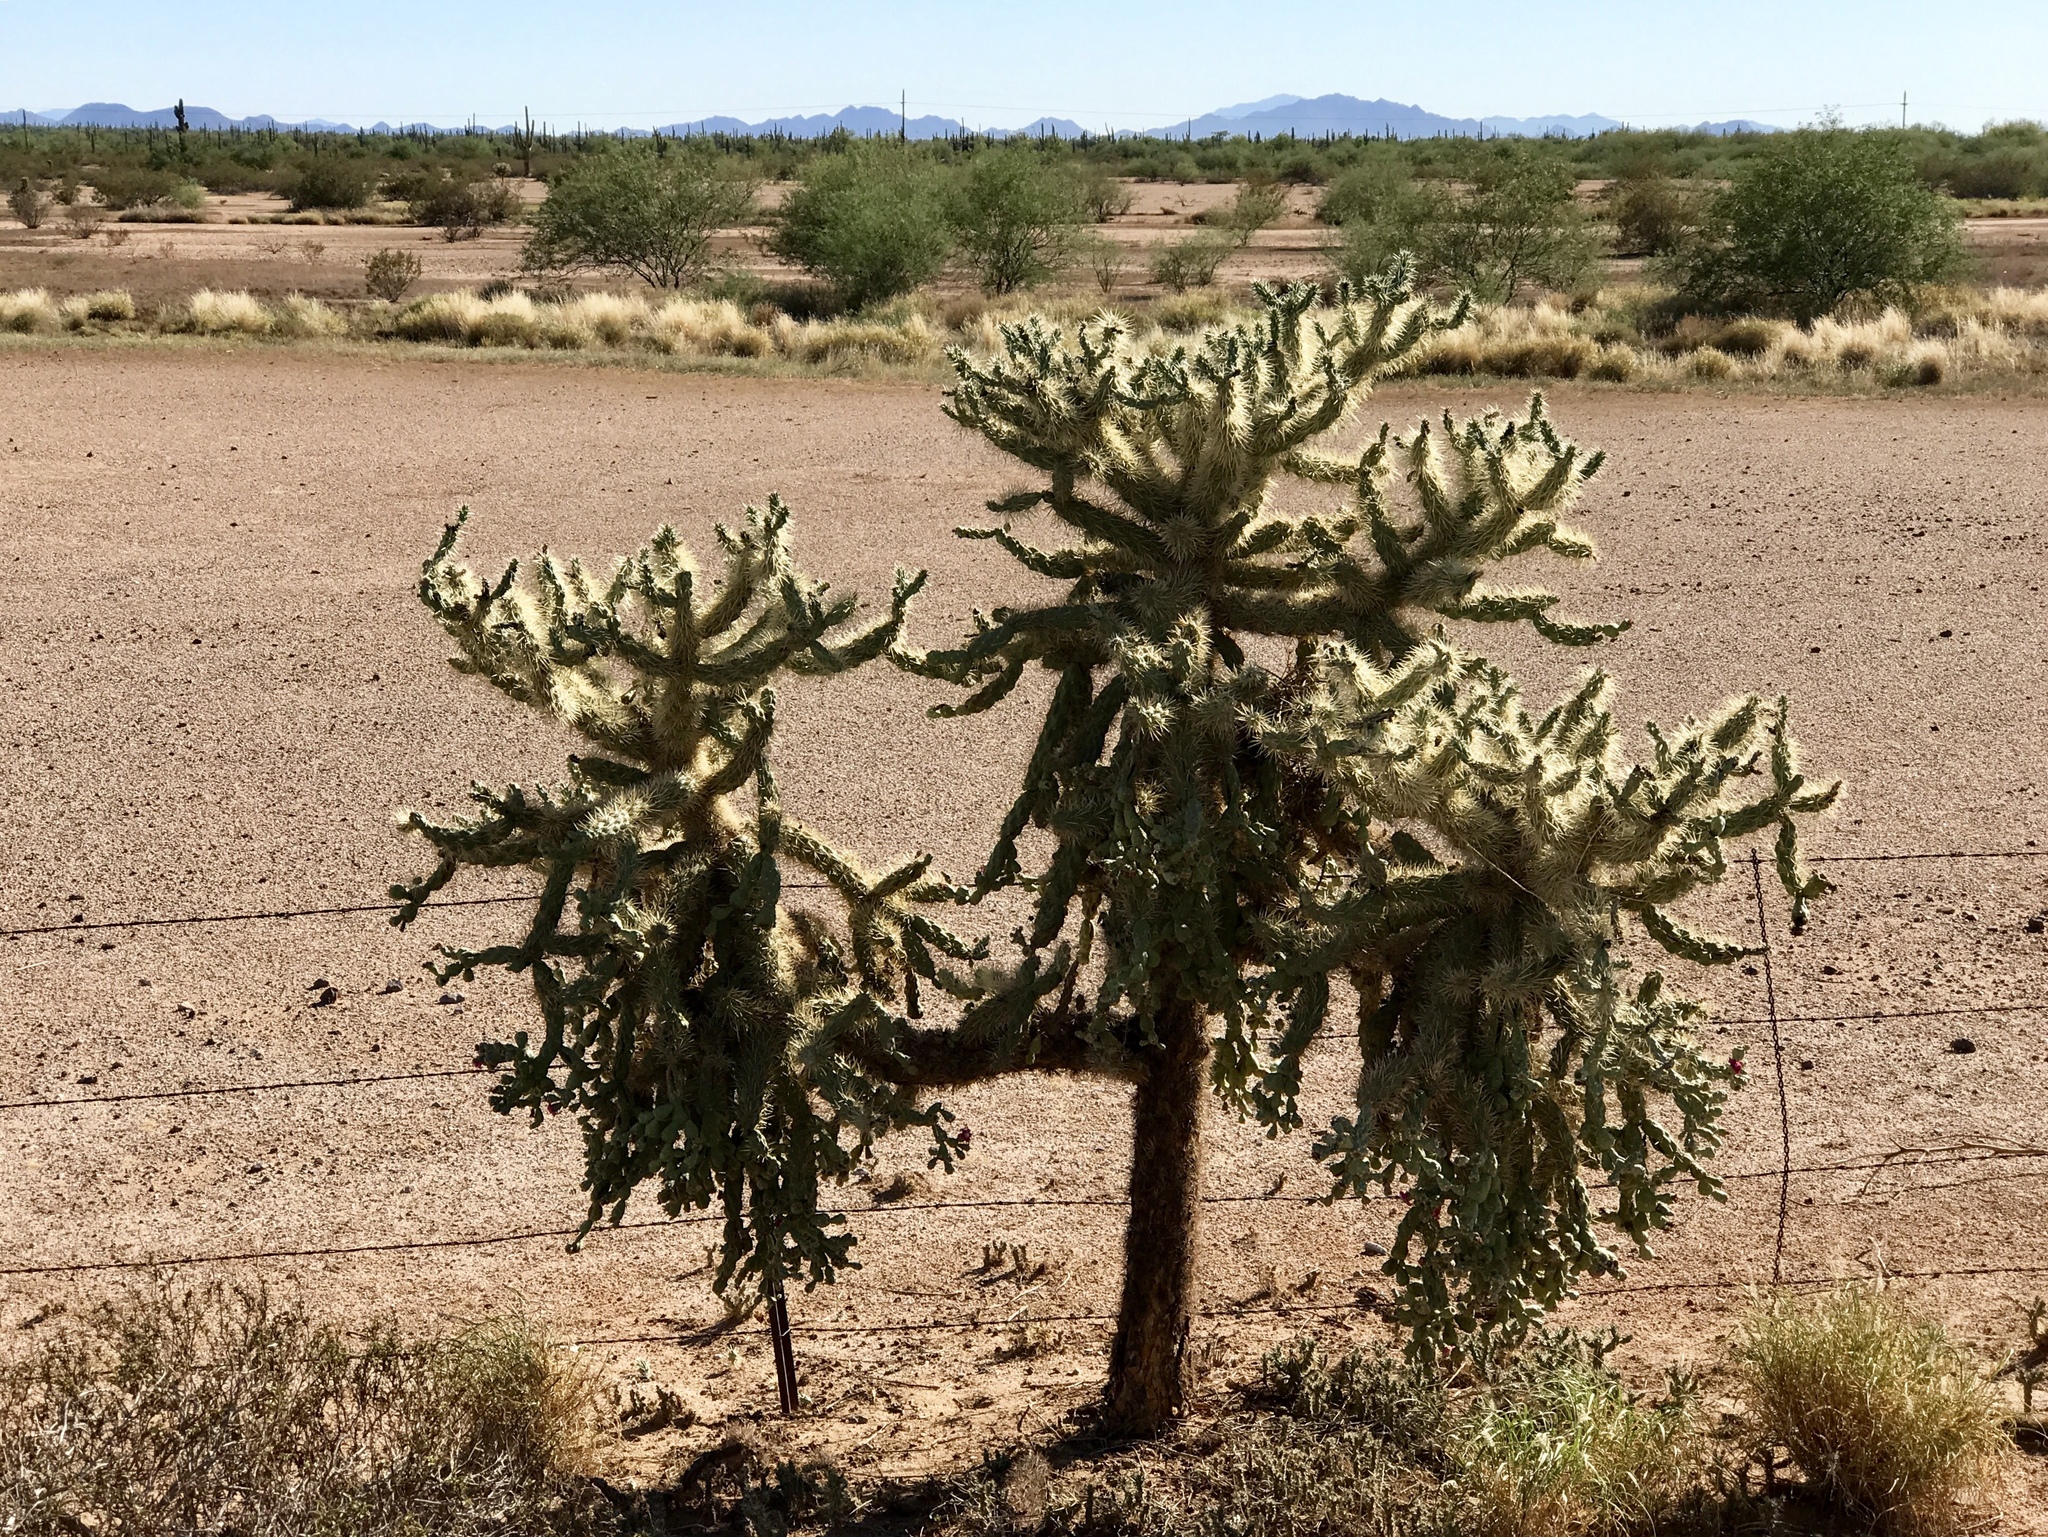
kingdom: Plantae
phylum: Tracheophyta
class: Magnoliopsida
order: Caryophyllales
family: Cactaceae
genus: Cylindropuntia
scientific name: Cylindropuntia fulgida
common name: Jumping cholla
